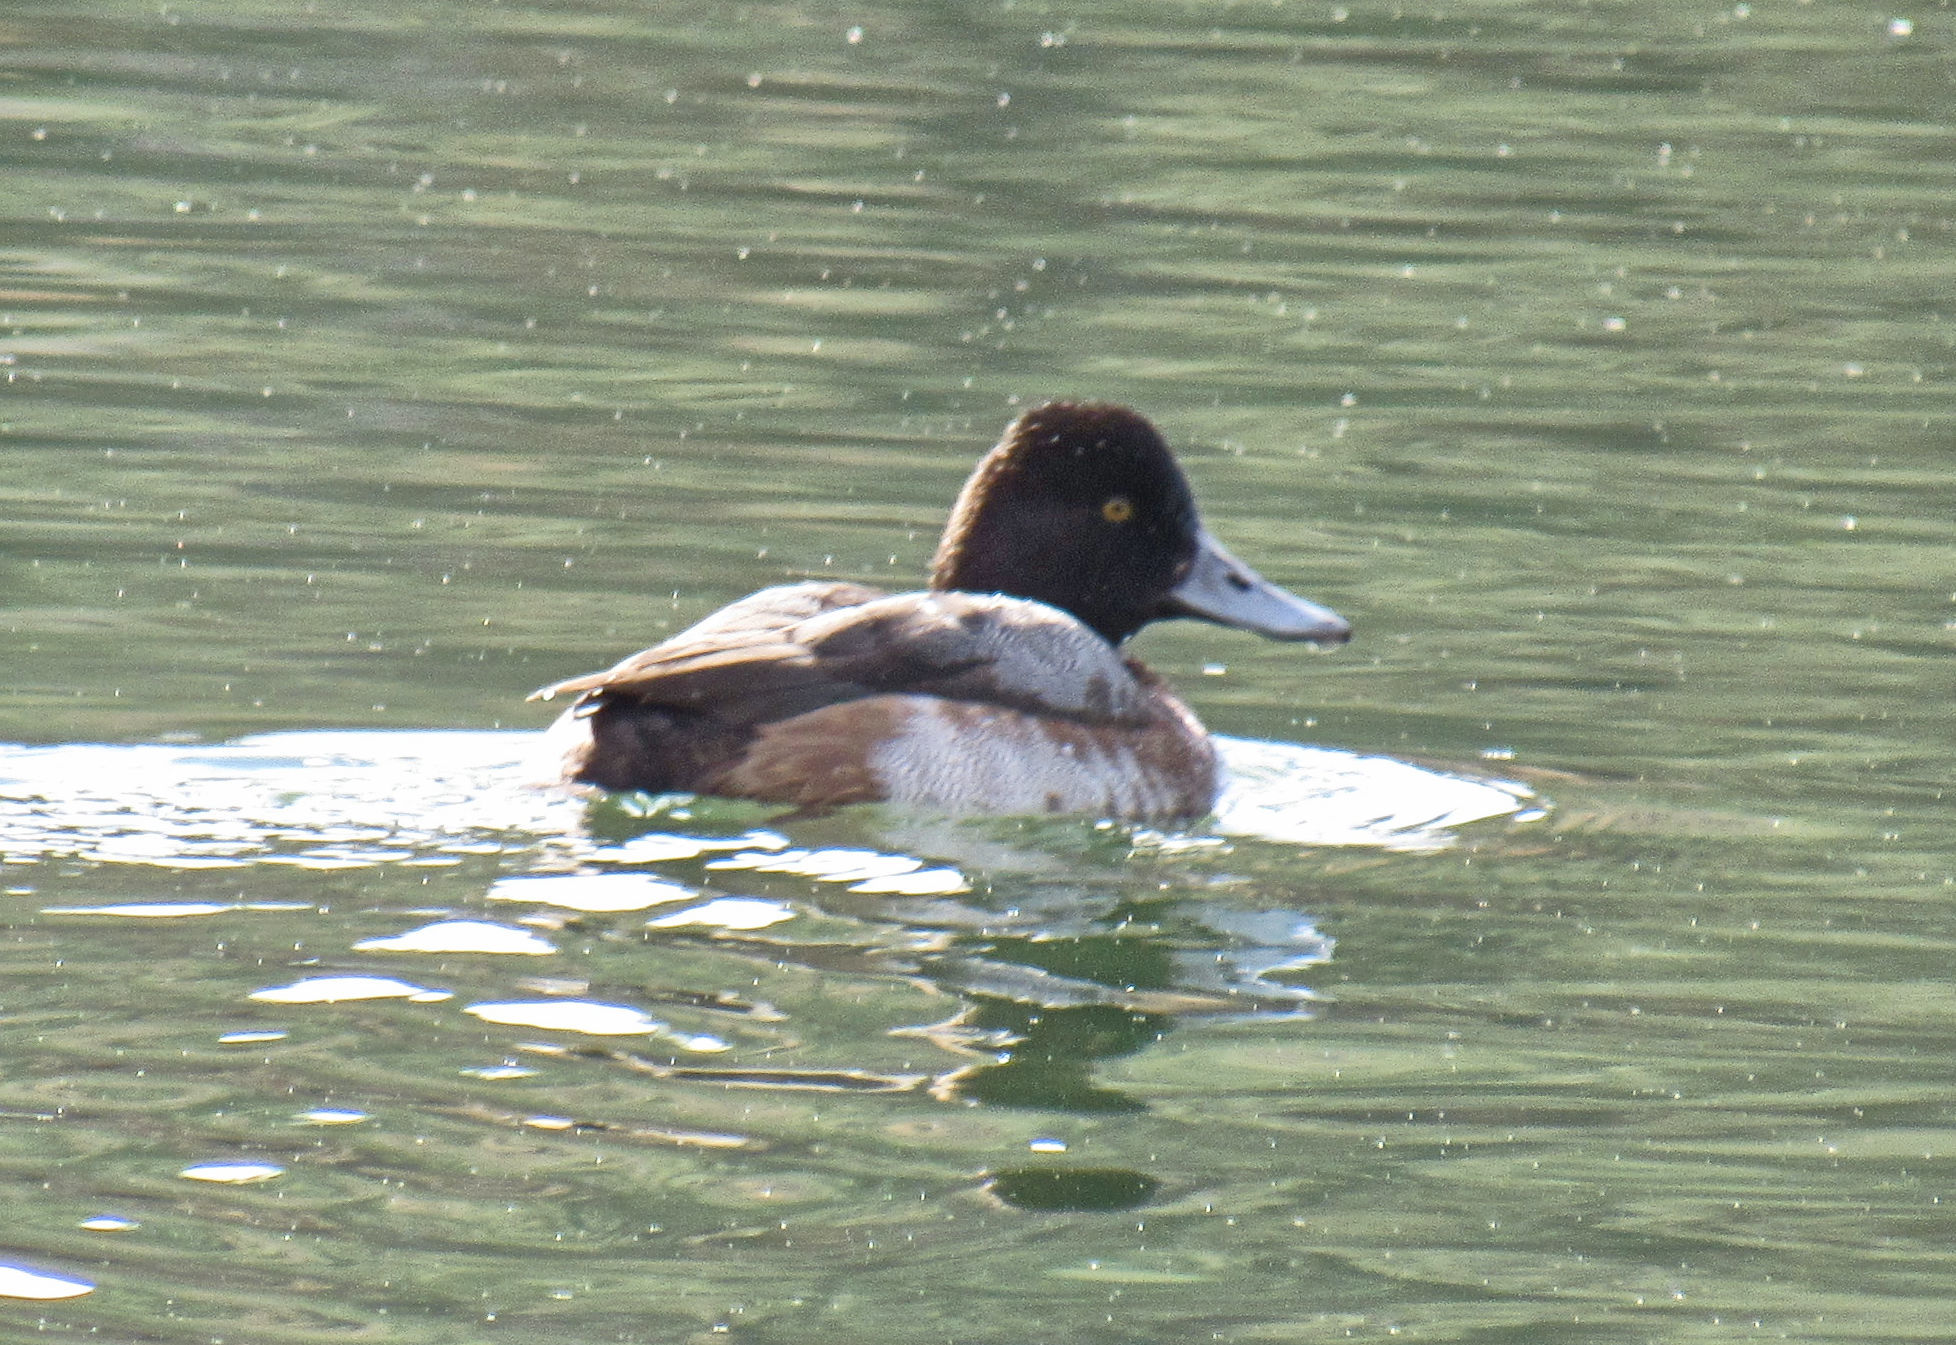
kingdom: Animalia
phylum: Chordata
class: Aves
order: Anseriformes
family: Anatidae
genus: Aythya
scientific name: Aythya affinis
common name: Lesser scaup
